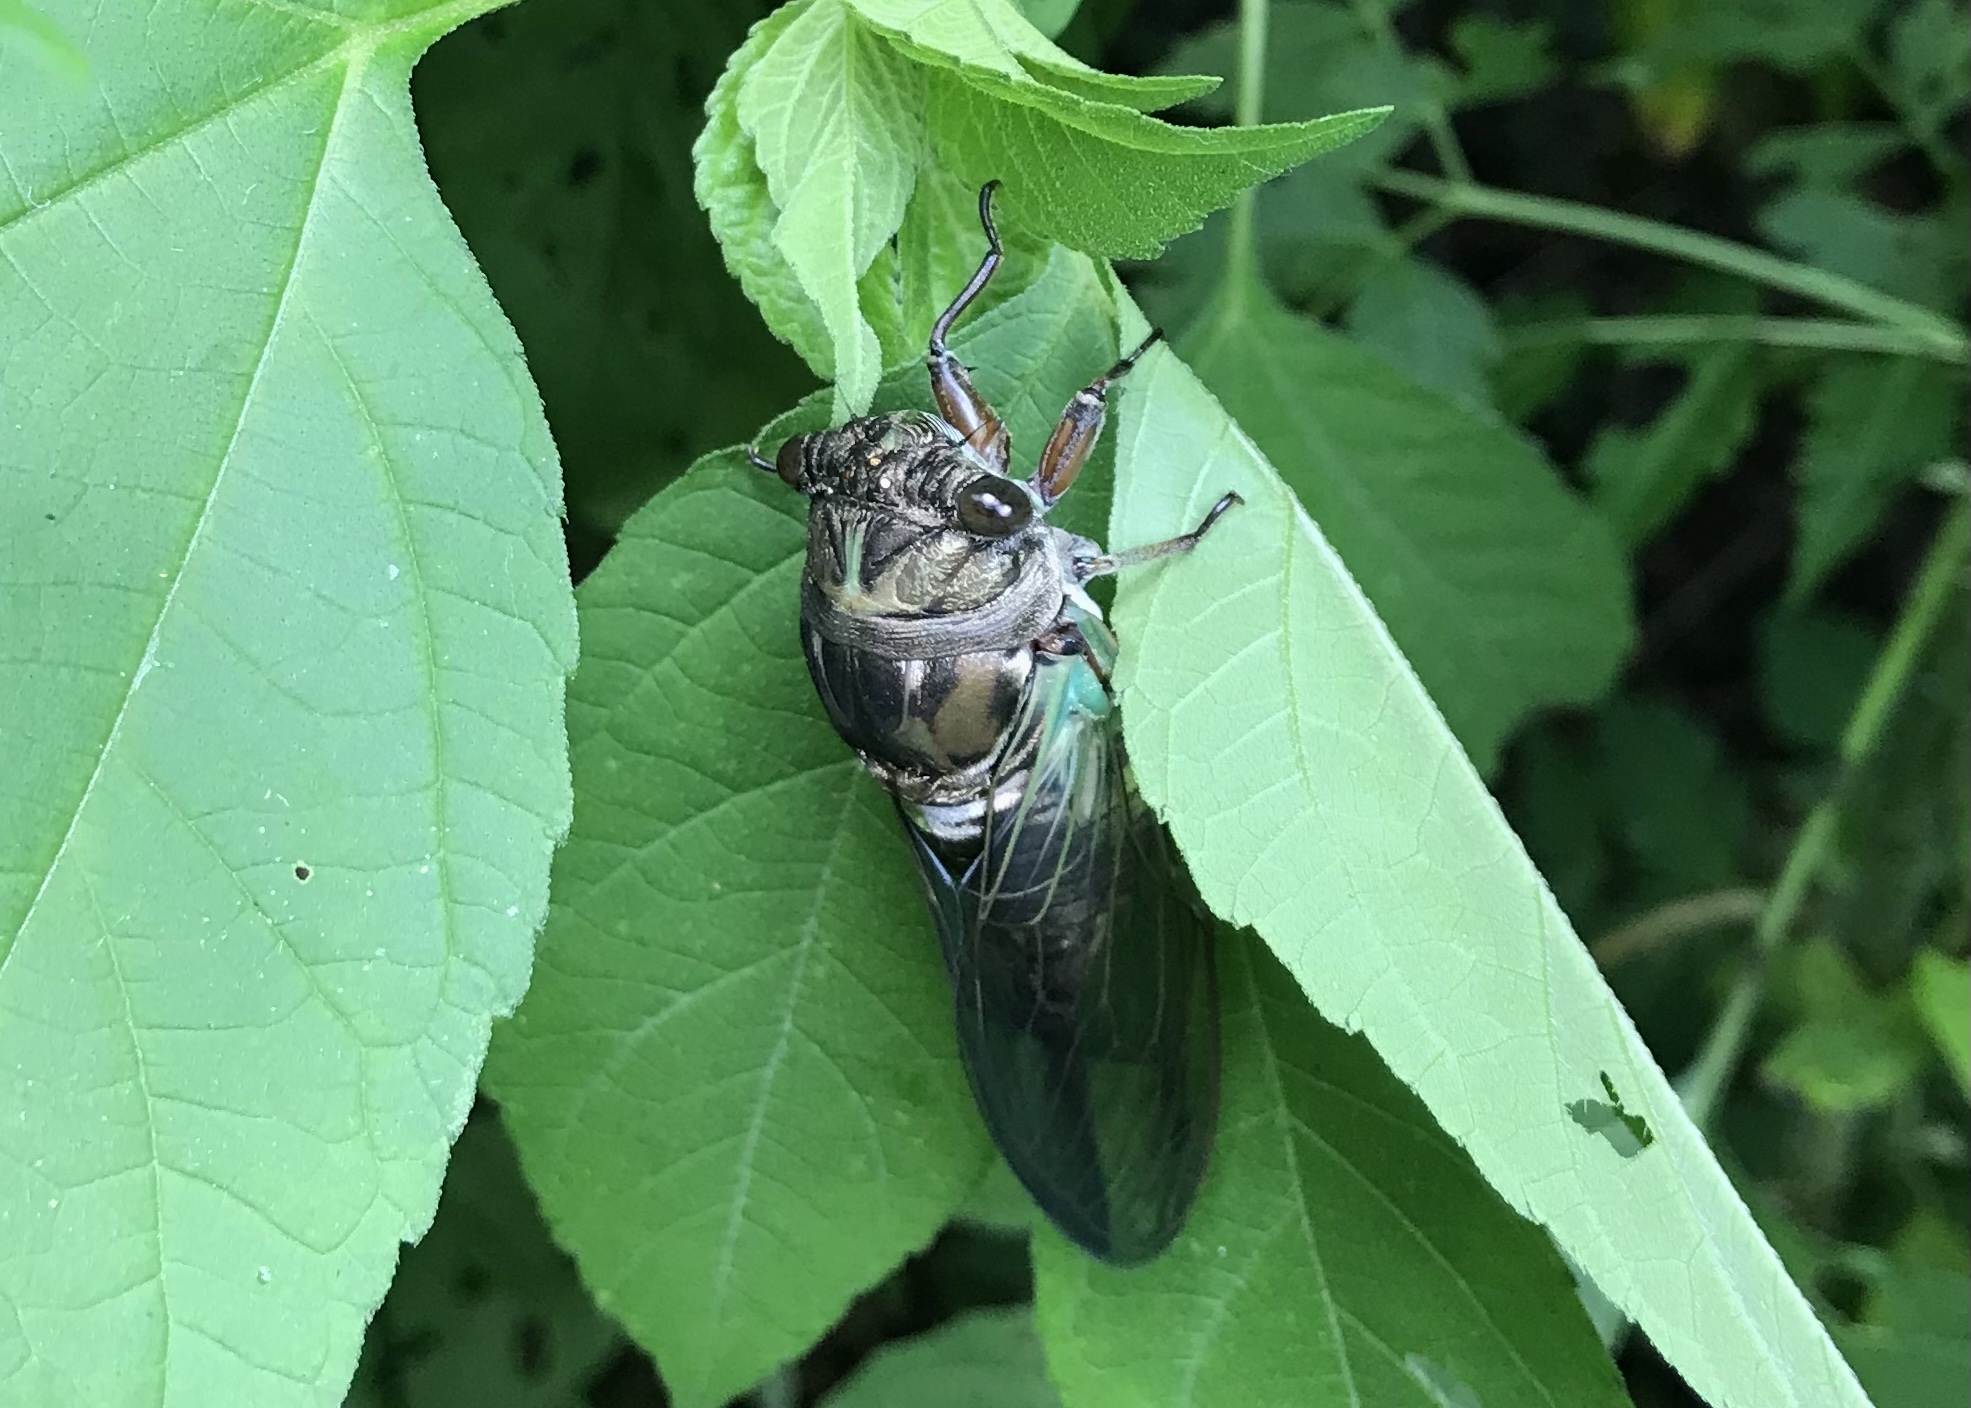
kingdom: Animalia
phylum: Arthropoda
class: Insecta
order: Hemiptera
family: Cicadidae
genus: Neotibicen
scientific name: Neotibicen lyricen
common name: Lyric cicada
